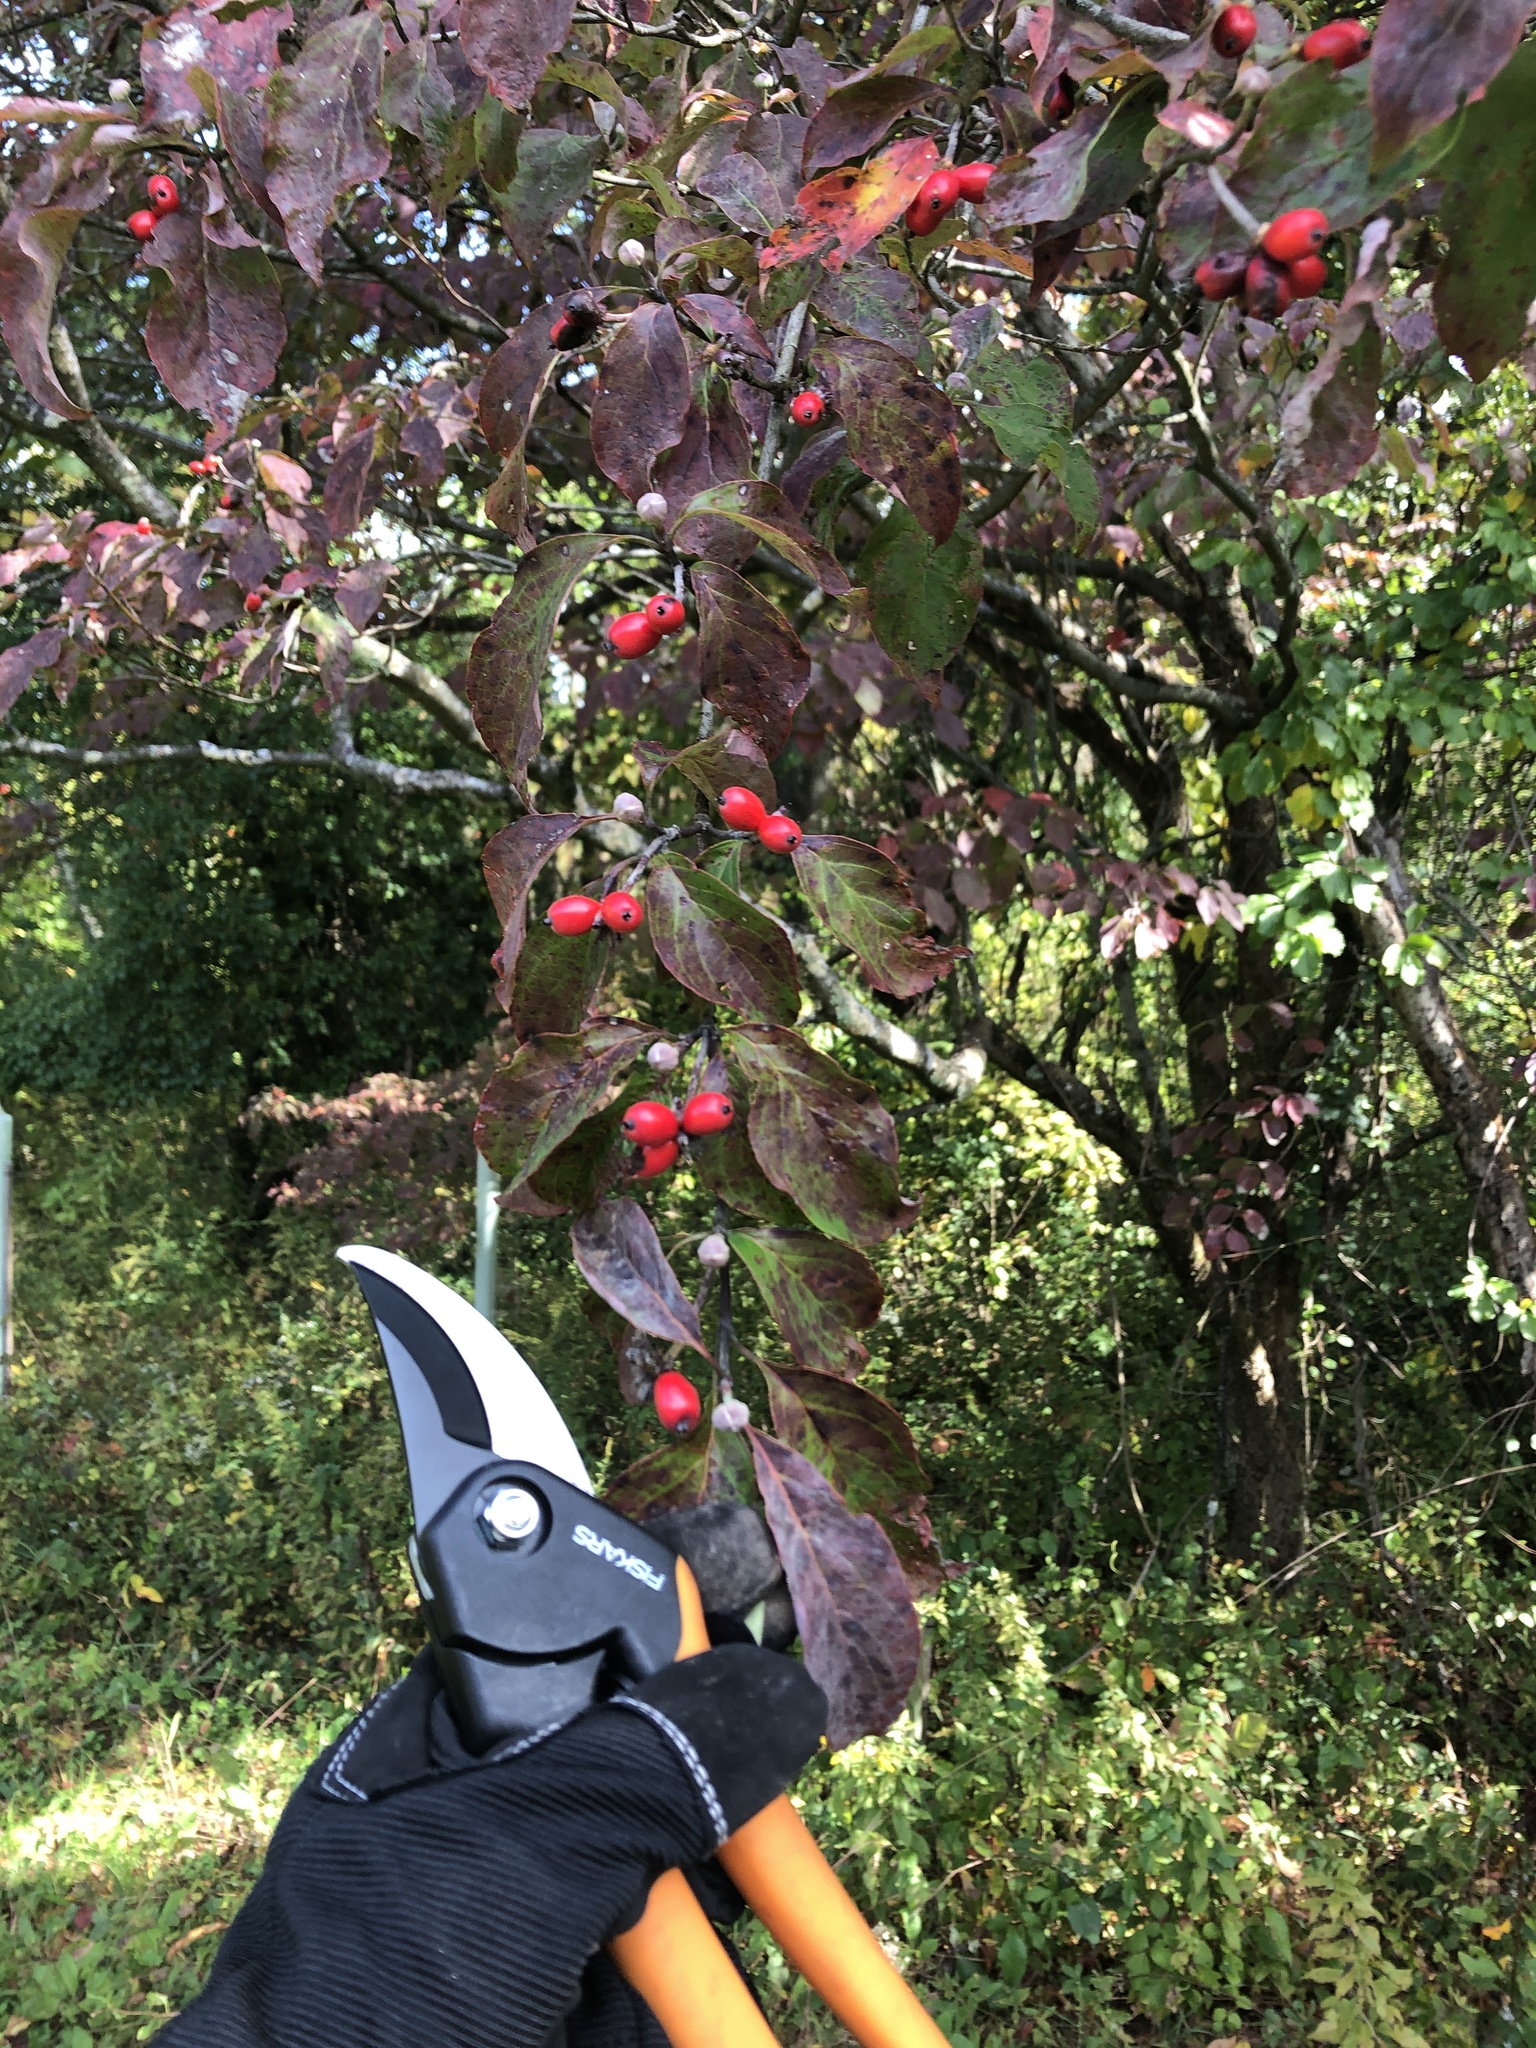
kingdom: Plantae
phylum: Tracheophyta
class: Magnoliopsida
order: Cornales
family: Cornaceae
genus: Cornus
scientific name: Cornus florida
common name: Flowering dogwood
